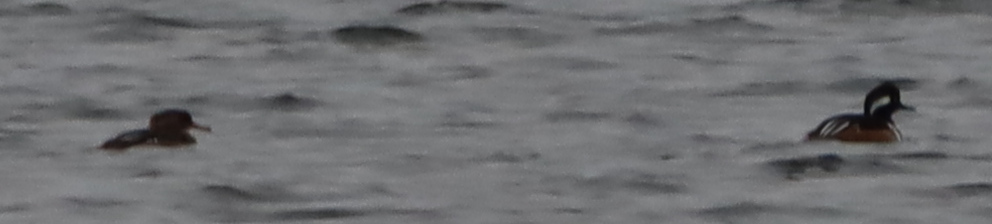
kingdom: Animalia
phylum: Chordata
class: Aves
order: Anseriformes
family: Anatidae
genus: Lophodytes
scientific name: Lophodytes cucullatus
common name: Hooded merganser
